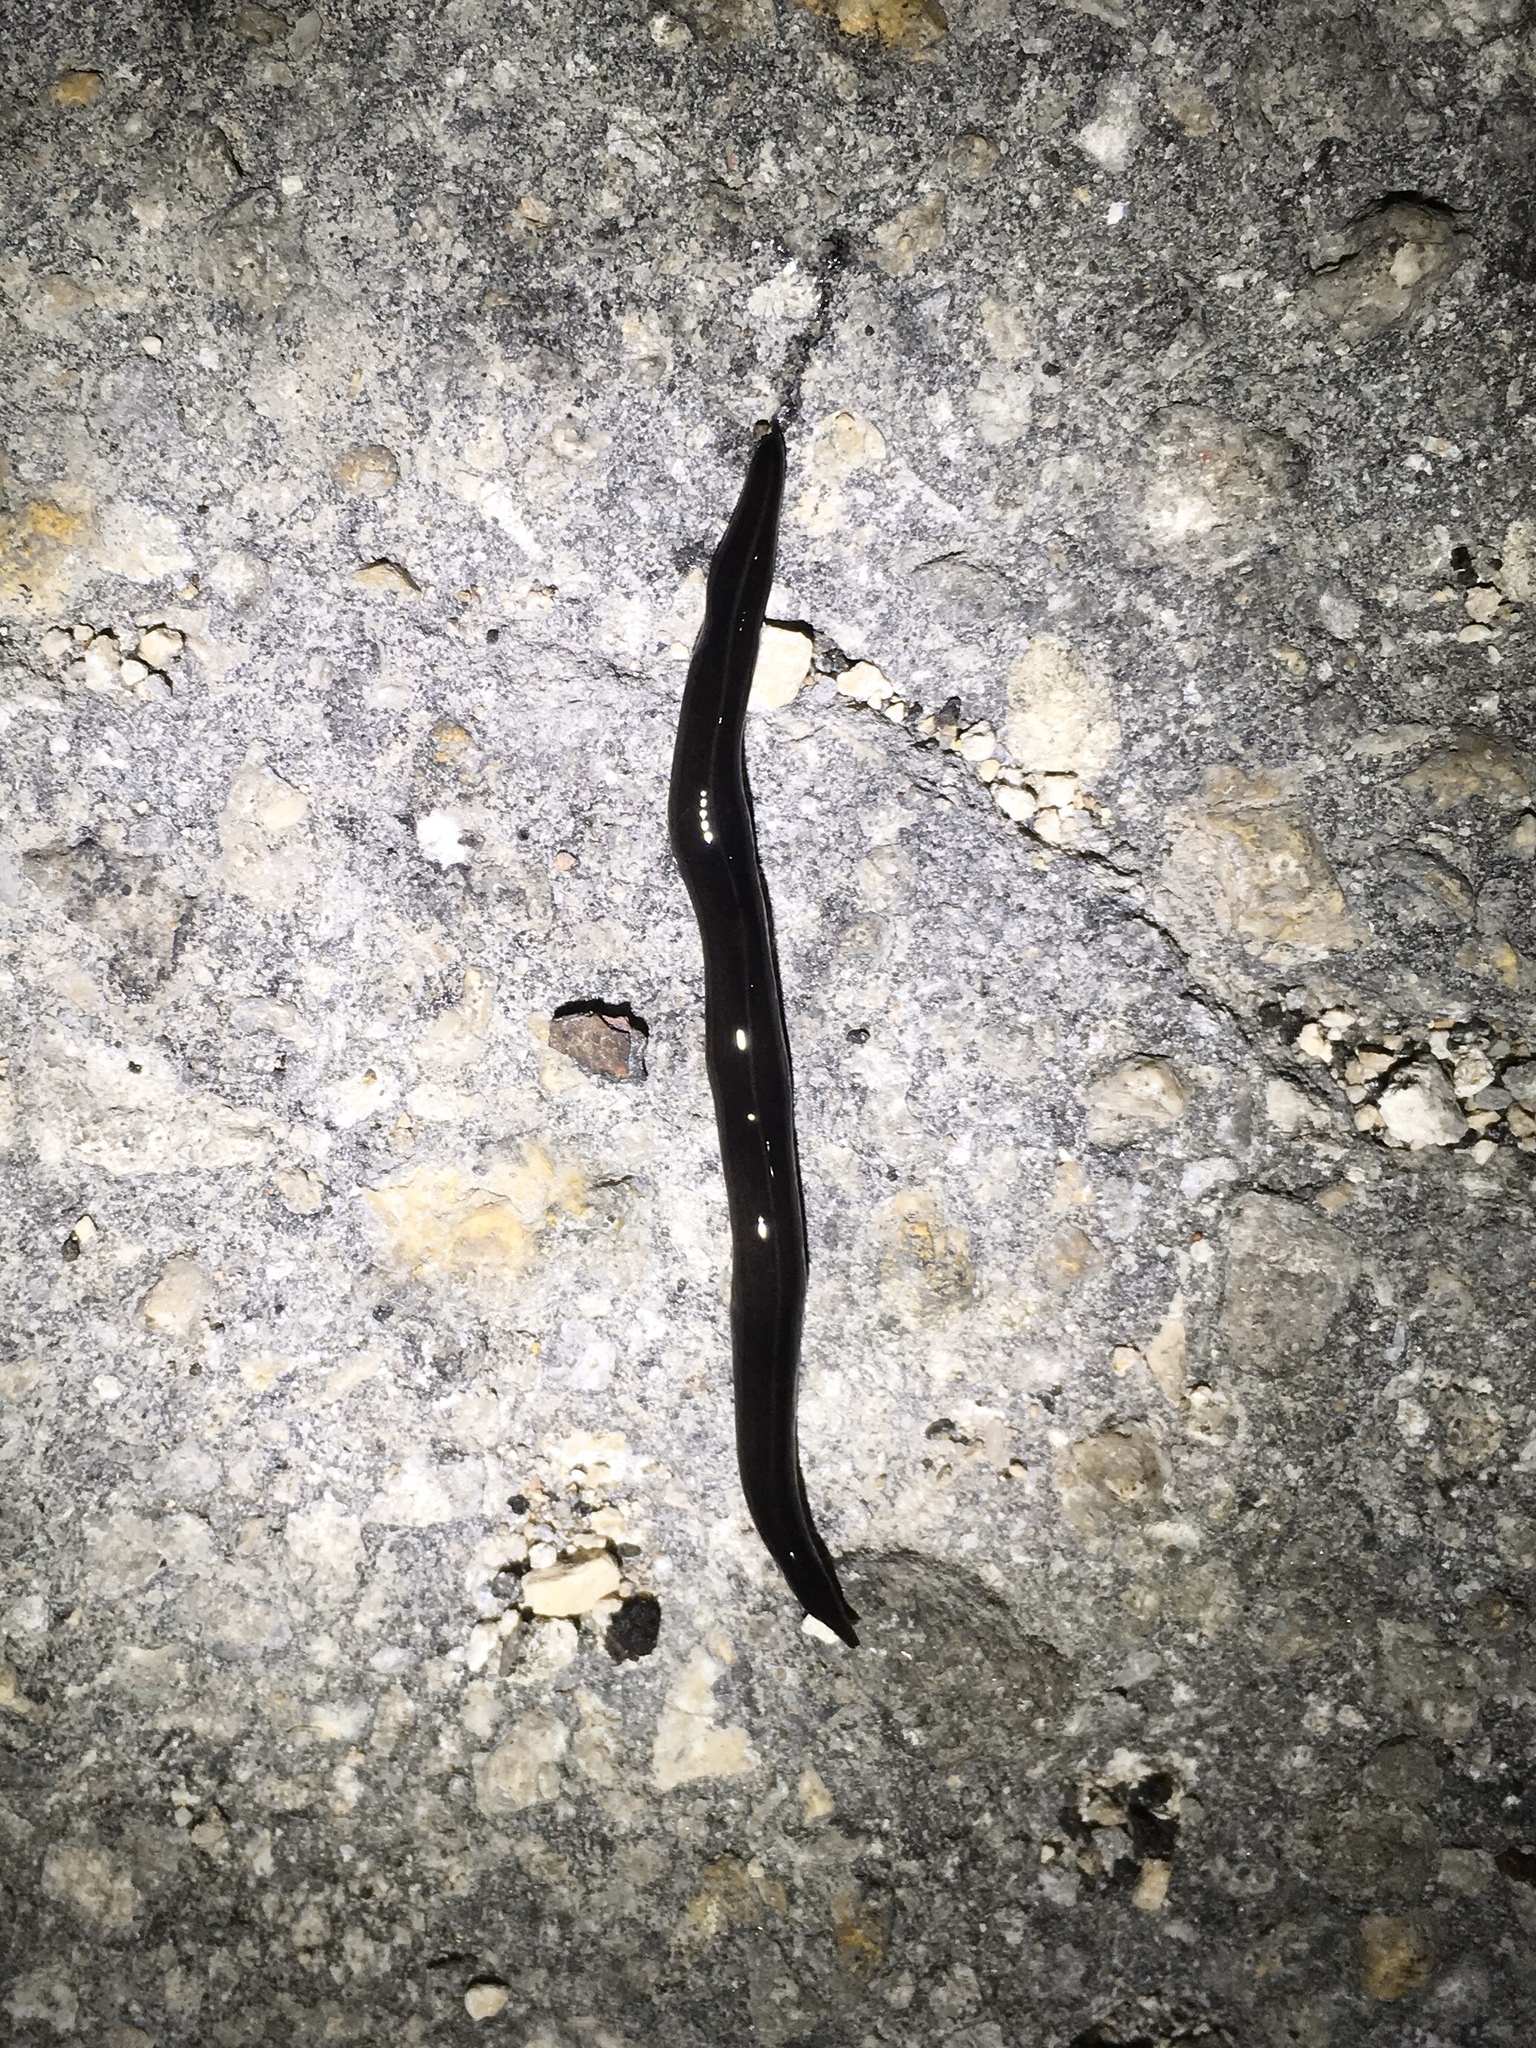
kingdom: Animalia
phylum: Platyhelminthes
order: Tricladida
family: Geoplanidae
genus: Platydemus
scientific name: Platydemus manokwari
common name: New guinea flatworm
